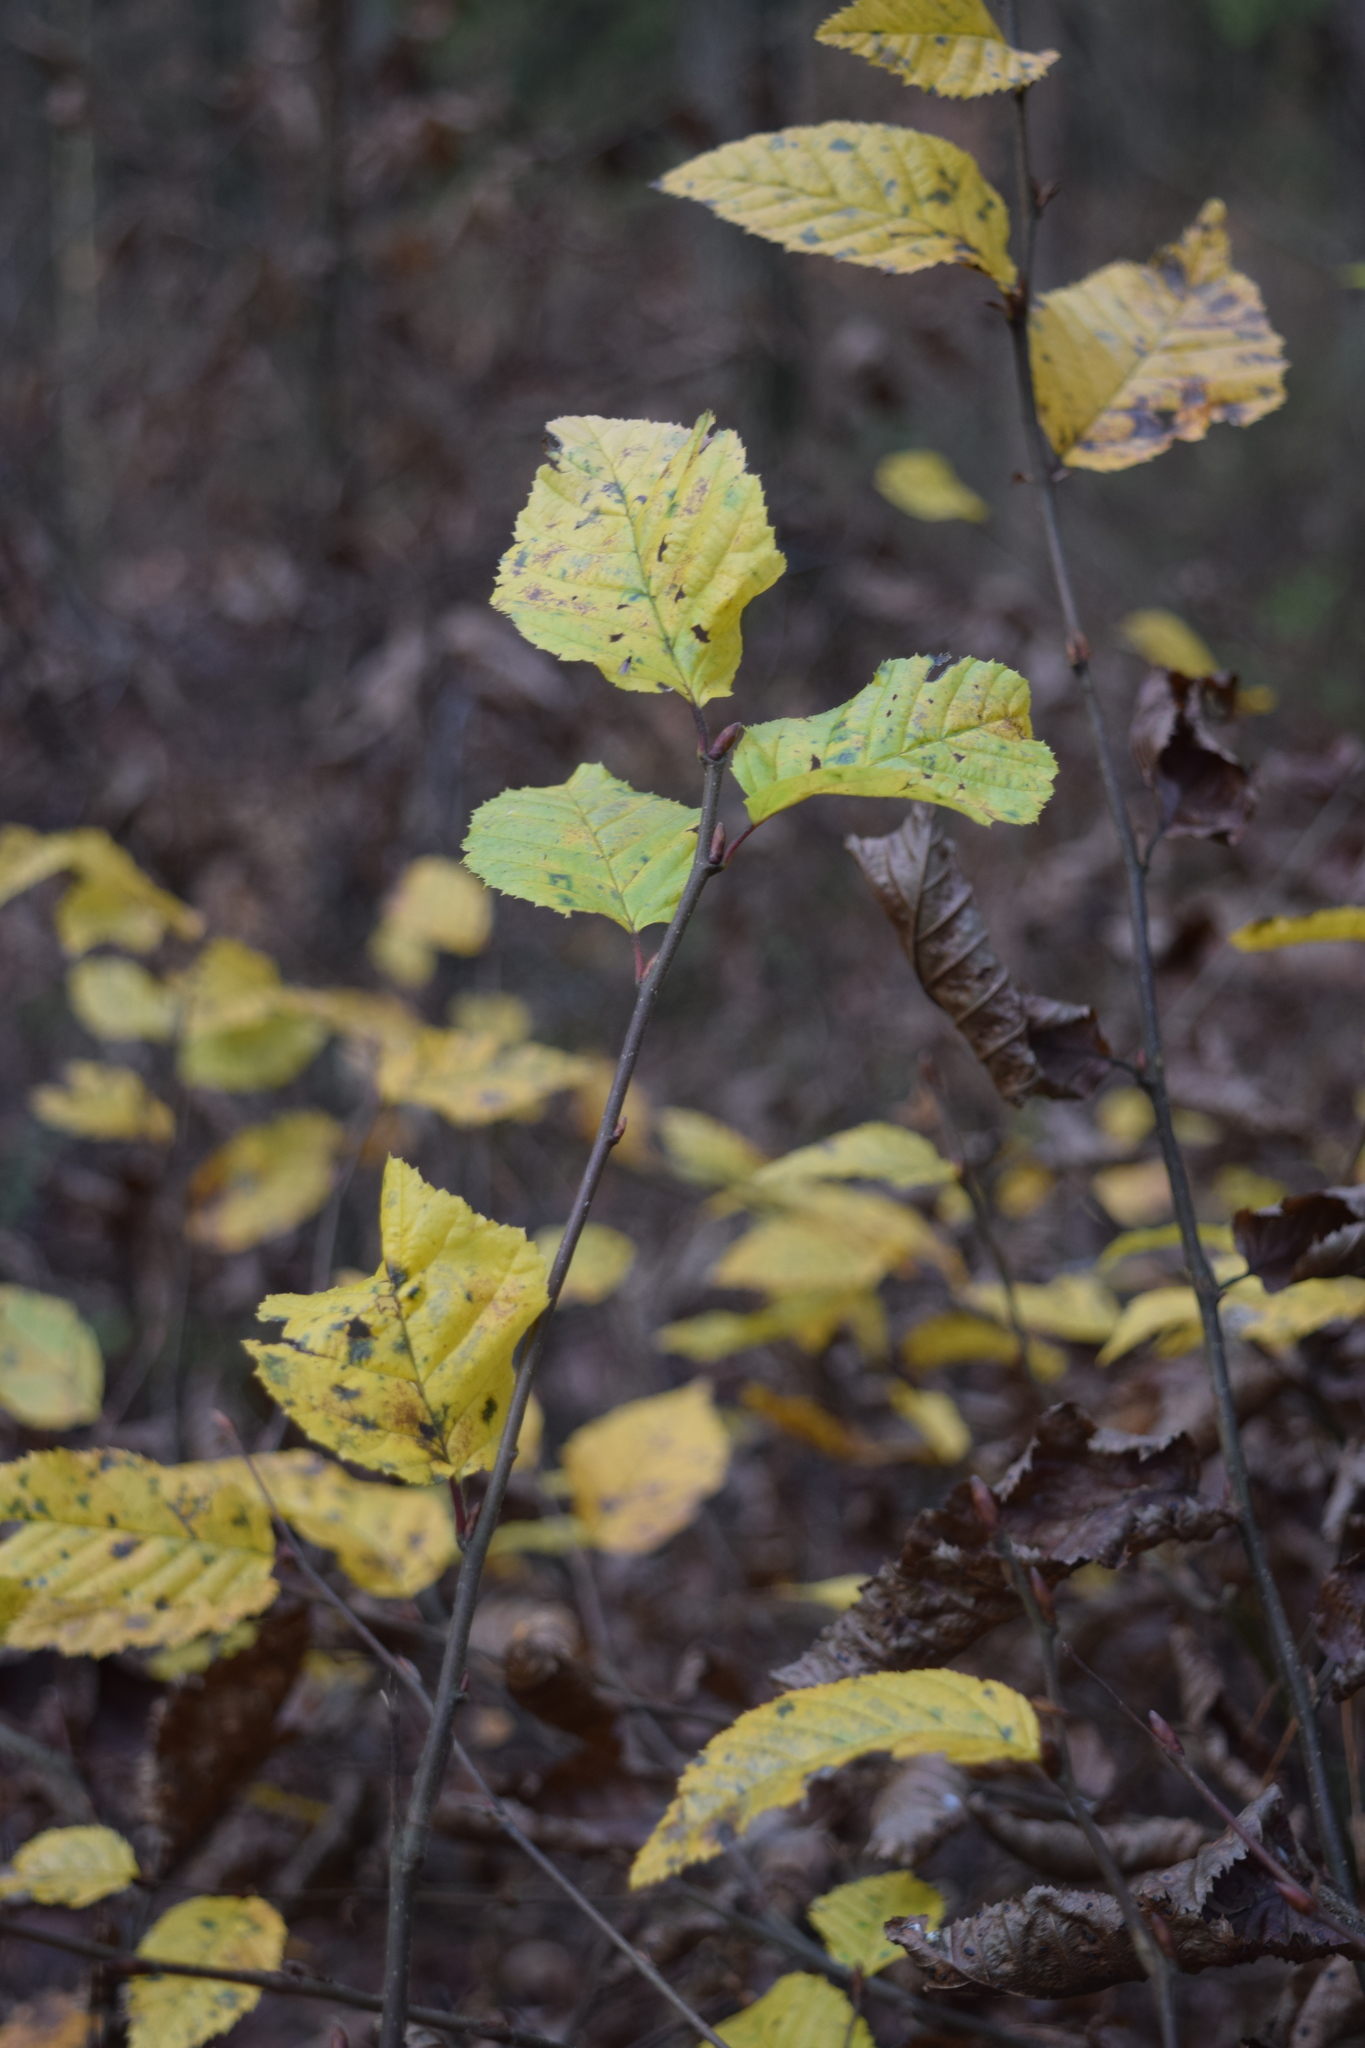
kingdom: Plantae
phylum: Tracheophyta
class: Magnoliopsida
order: Fagales
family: Betulaceae
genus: Carpinus
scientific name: Carpinus betulus
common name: Hornbeam
